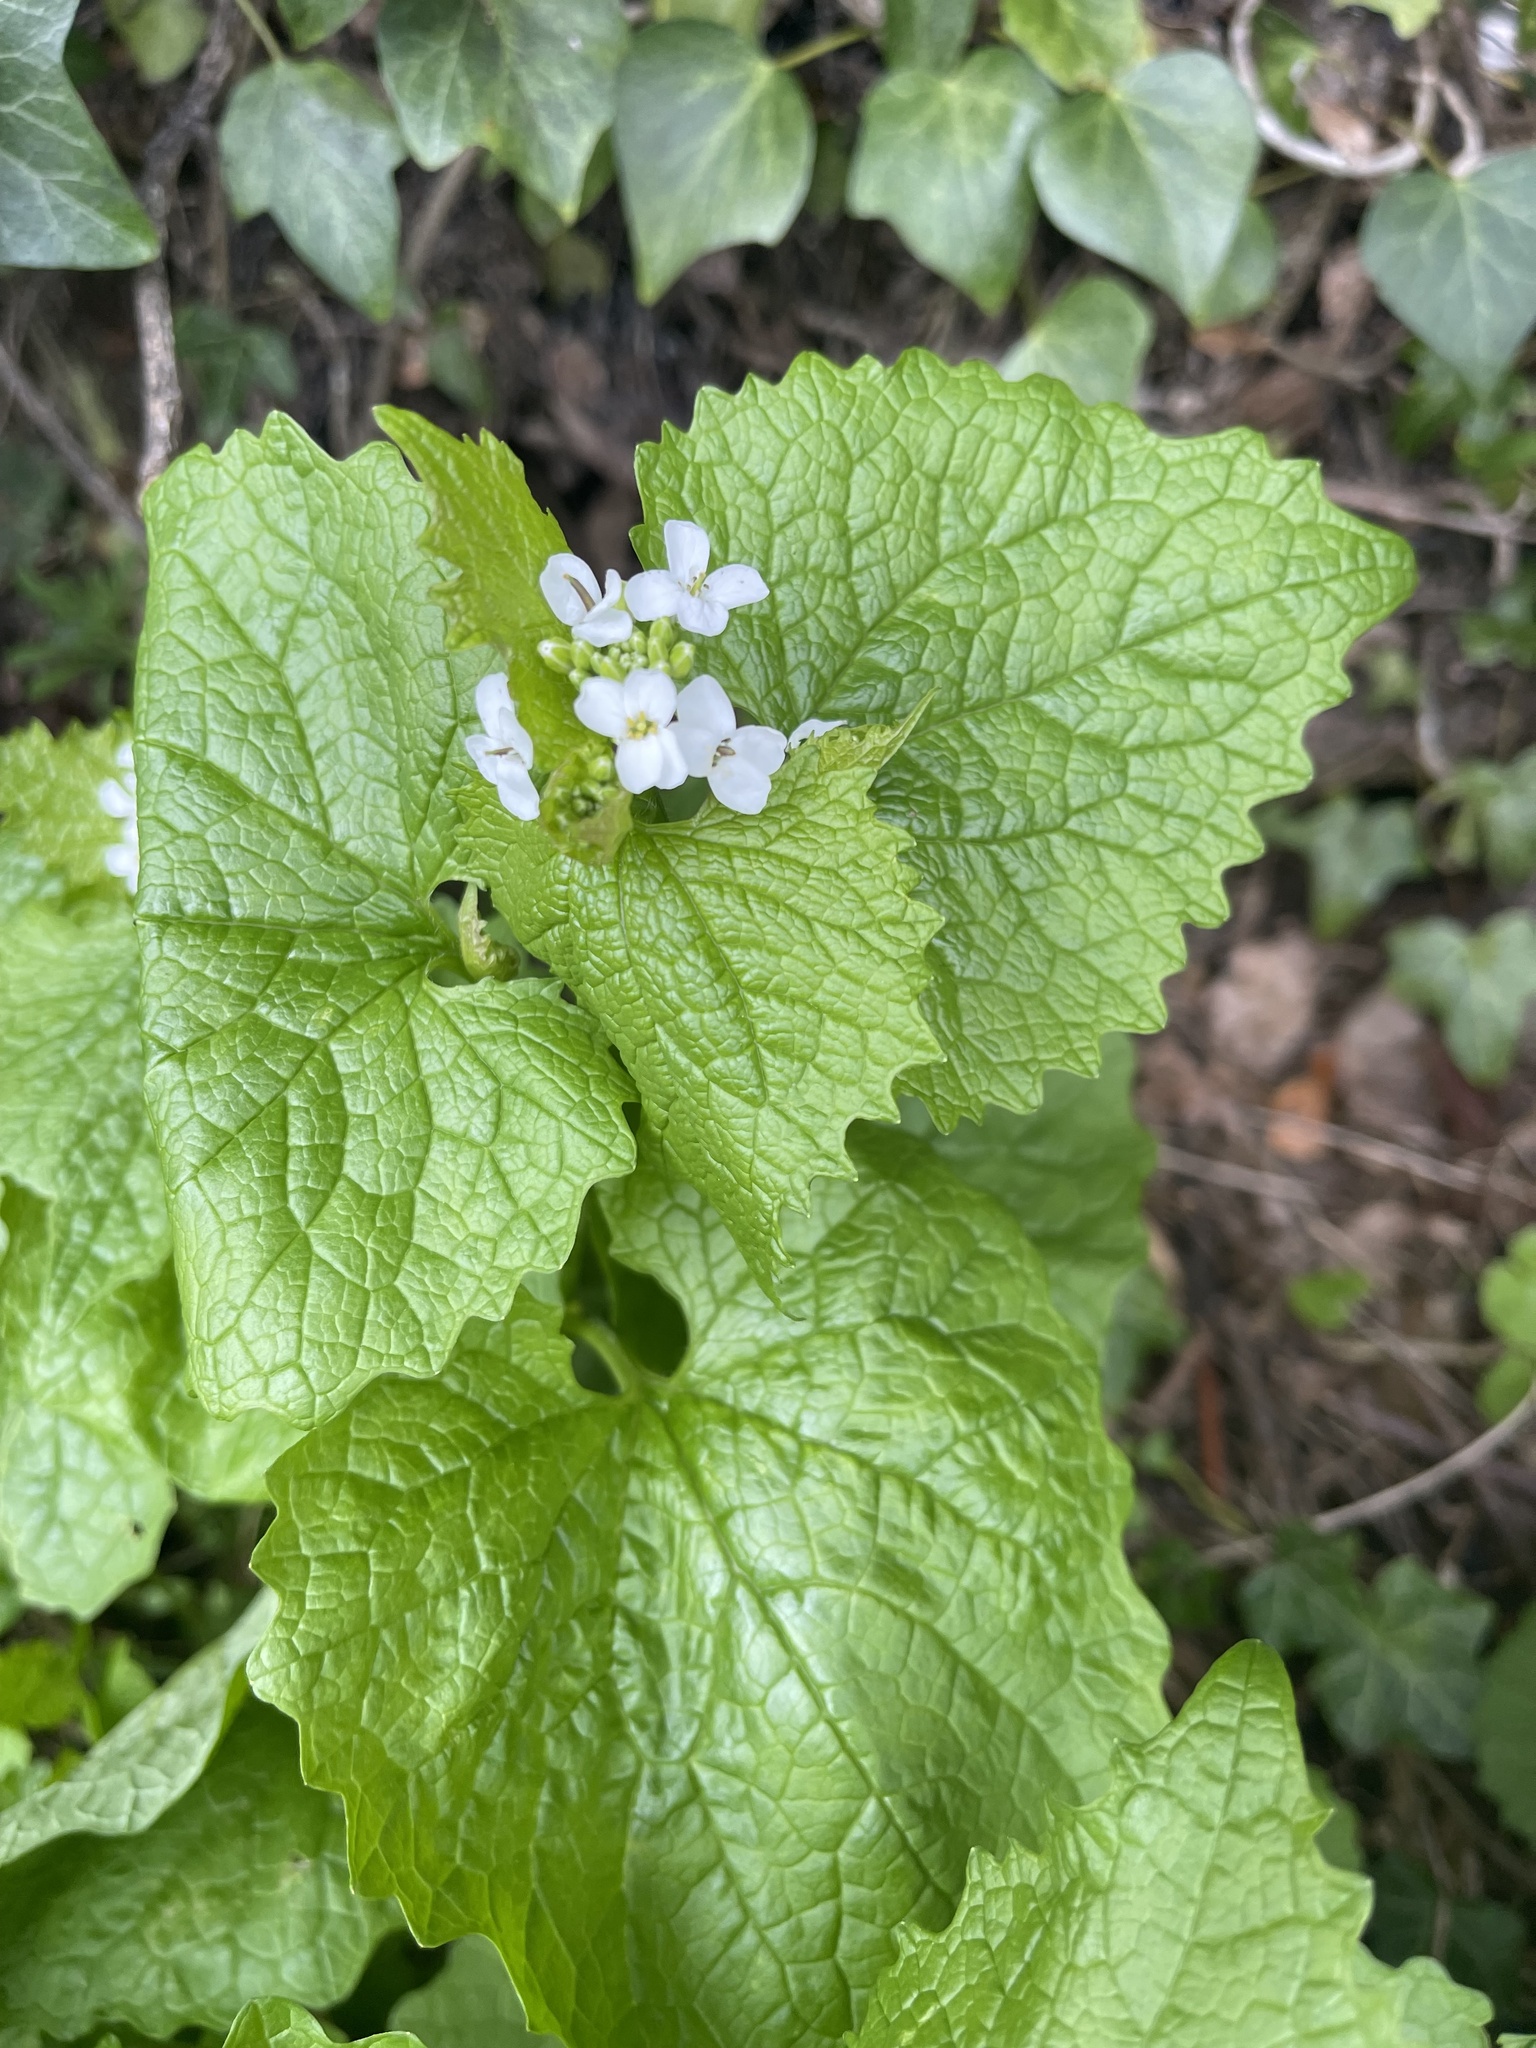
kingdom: Plantae
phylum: Tracheophyta
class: Magnoliopsida
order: Brassicales
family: Brassicaceae
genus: Alliaria
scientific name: Alliaria petiolata
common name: Garlic mustard
